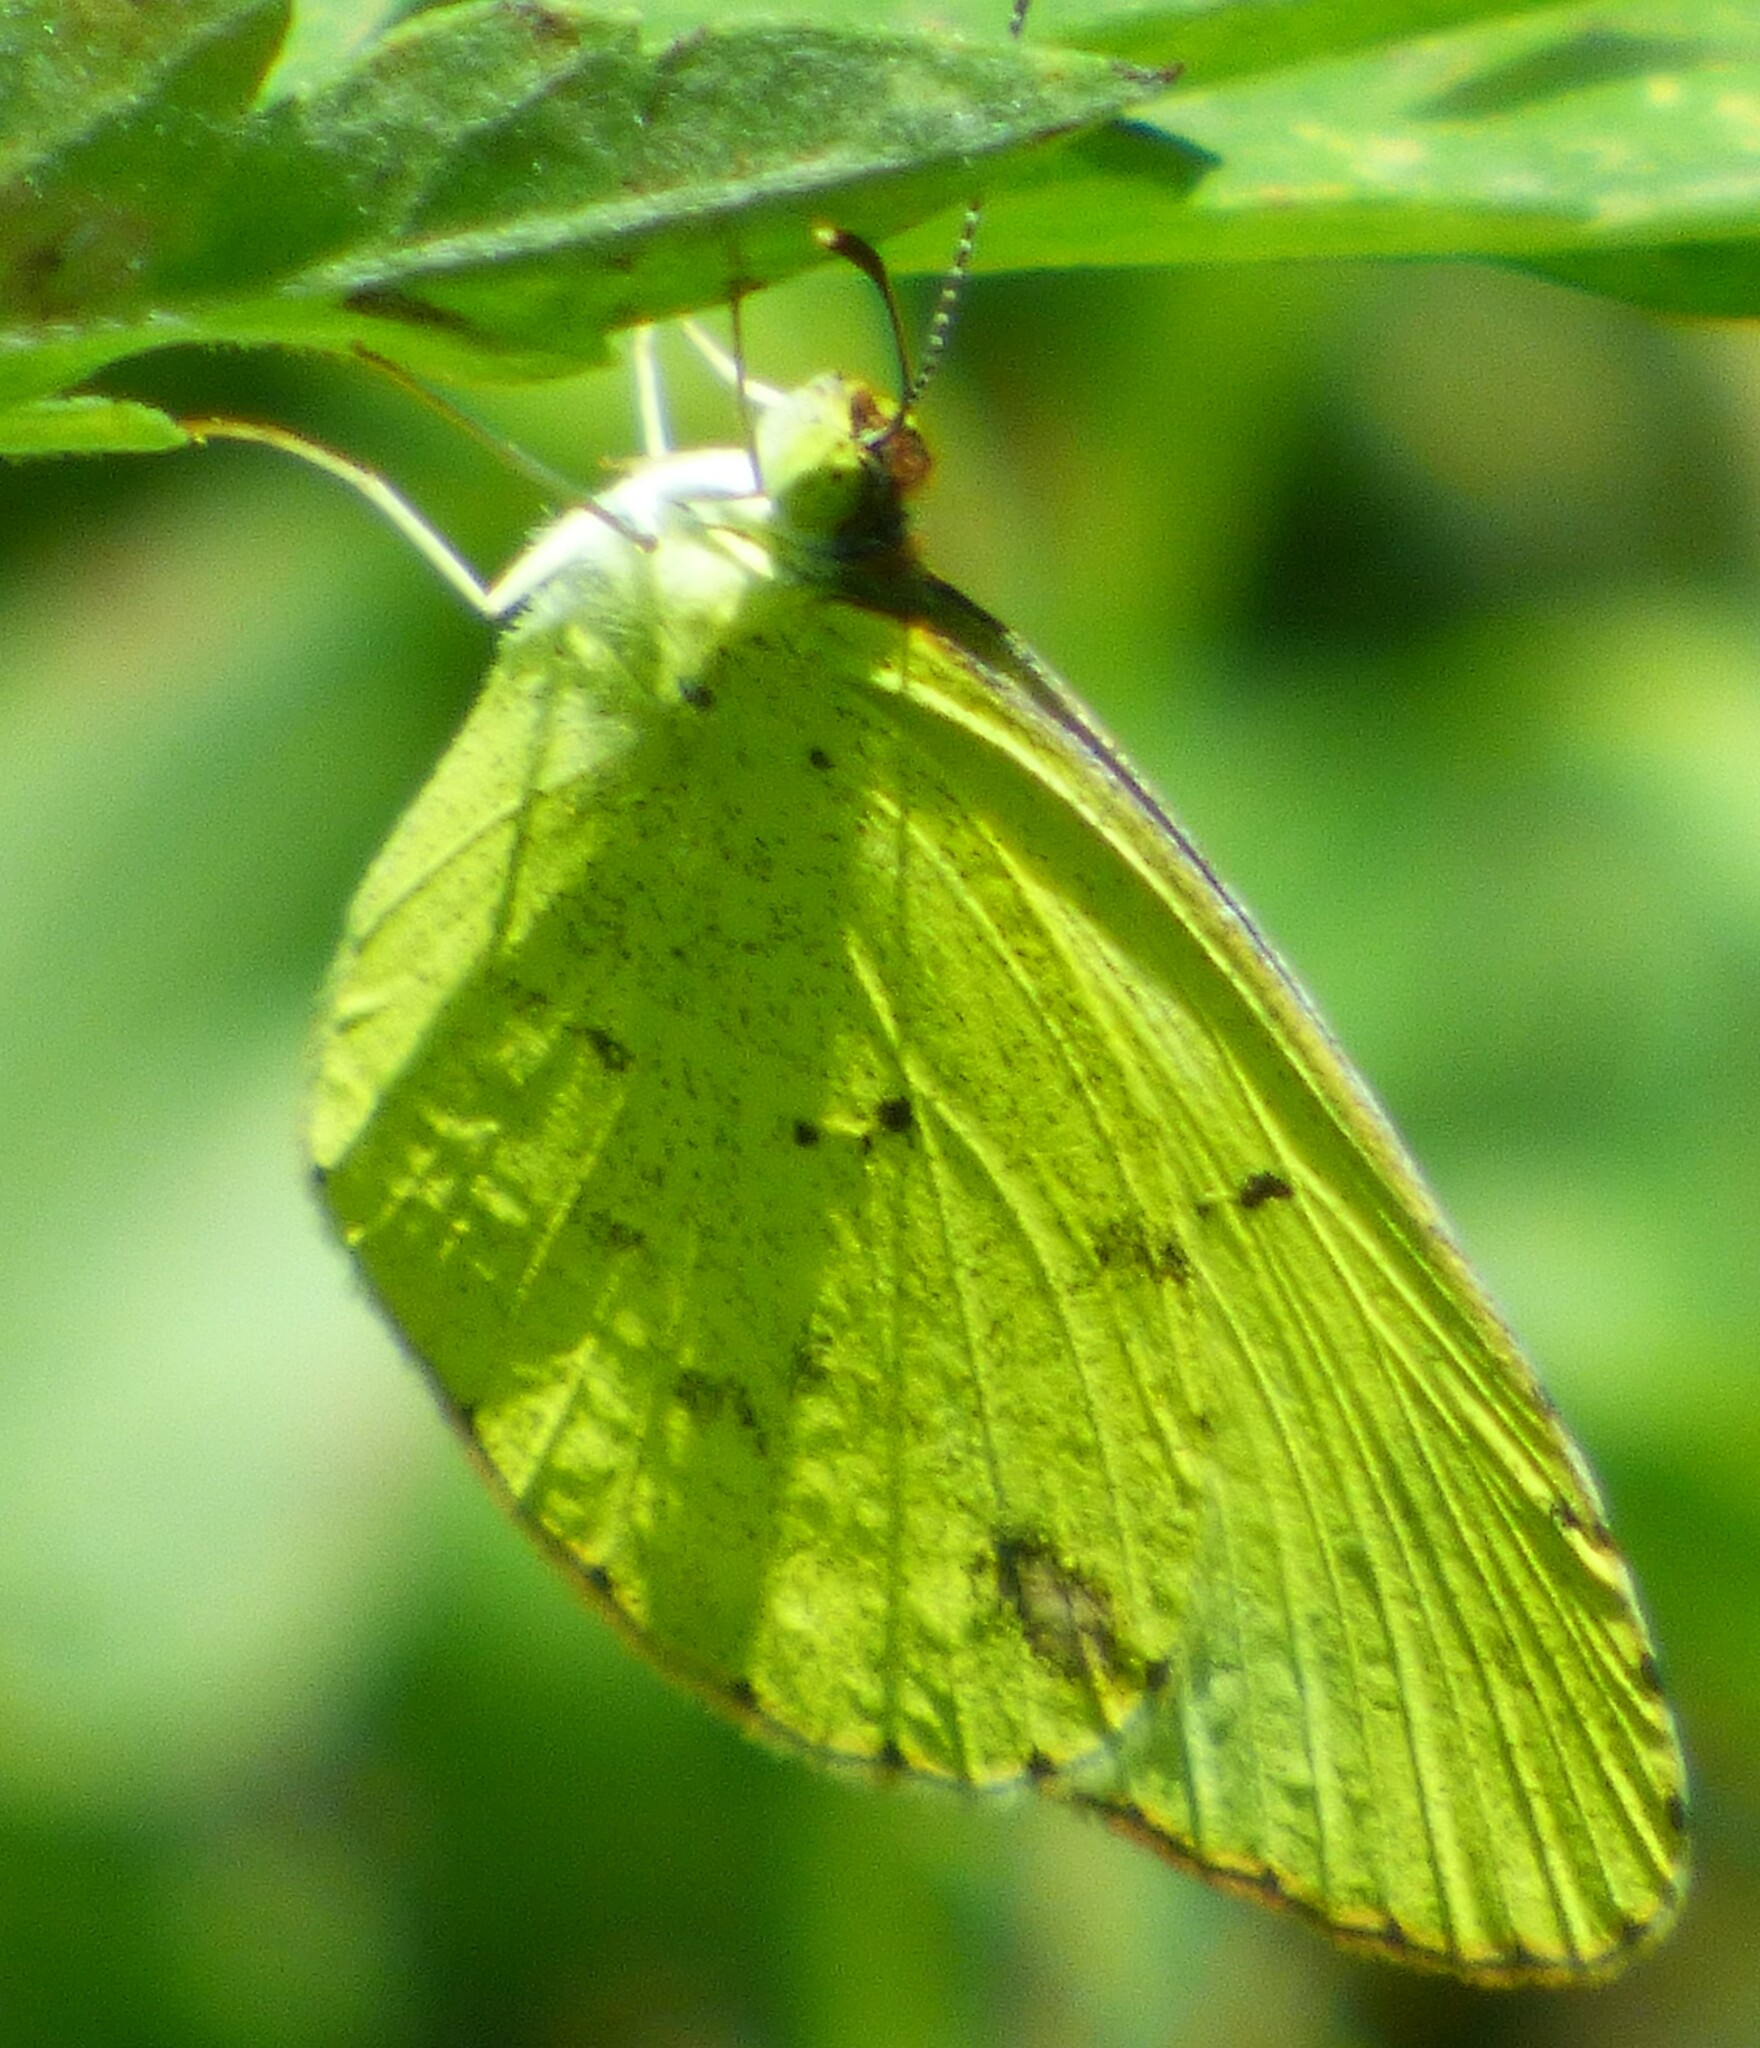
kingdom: Animalia
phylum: Arthropoda
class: Insecta
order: Lepidoptera
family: Pieridae
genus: Pyrisitia
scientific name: Pyrisitia lisa
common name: Little yellow
